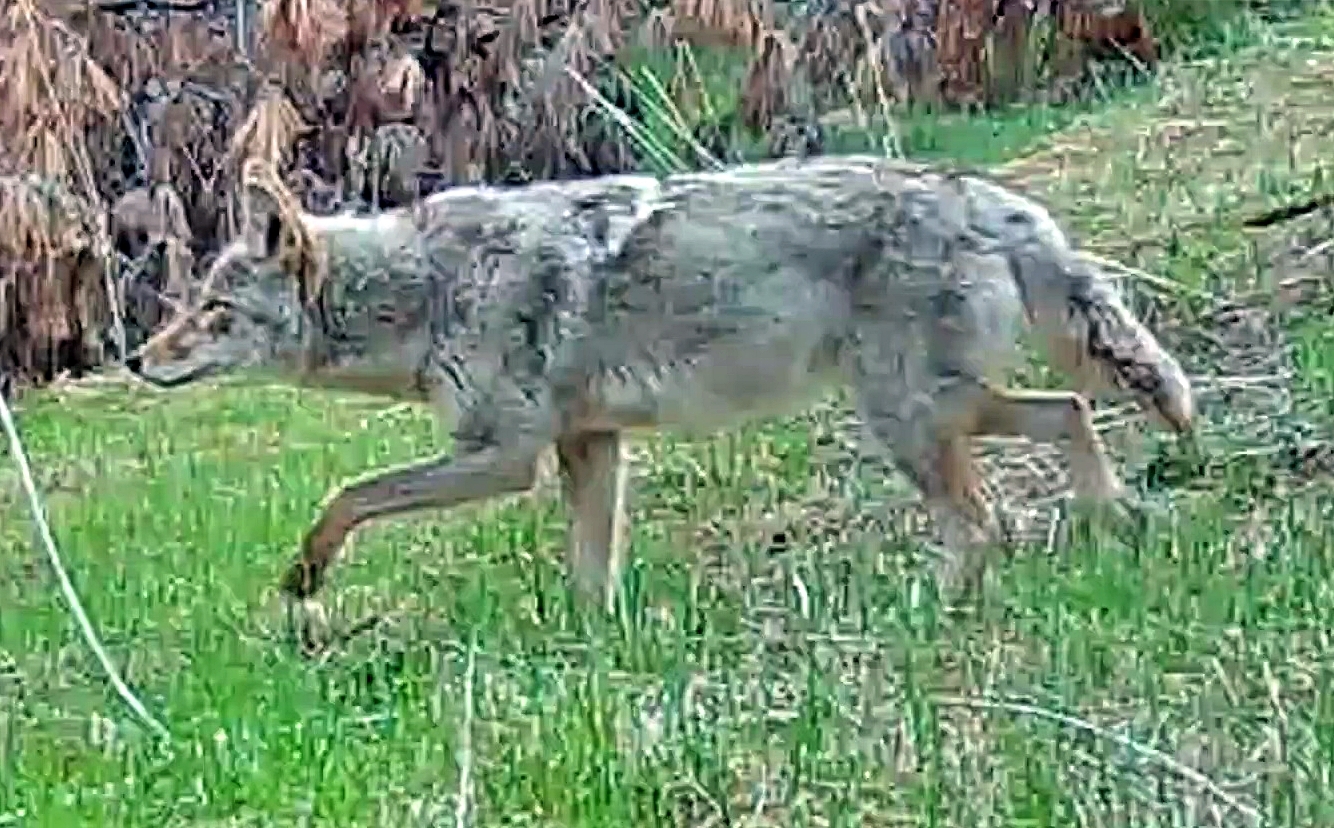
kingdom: Animalia
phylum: Chordata
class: Mammalia
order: Carnivora
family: Canidae
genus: Canis
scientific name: Canis latrans
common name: Coyote
